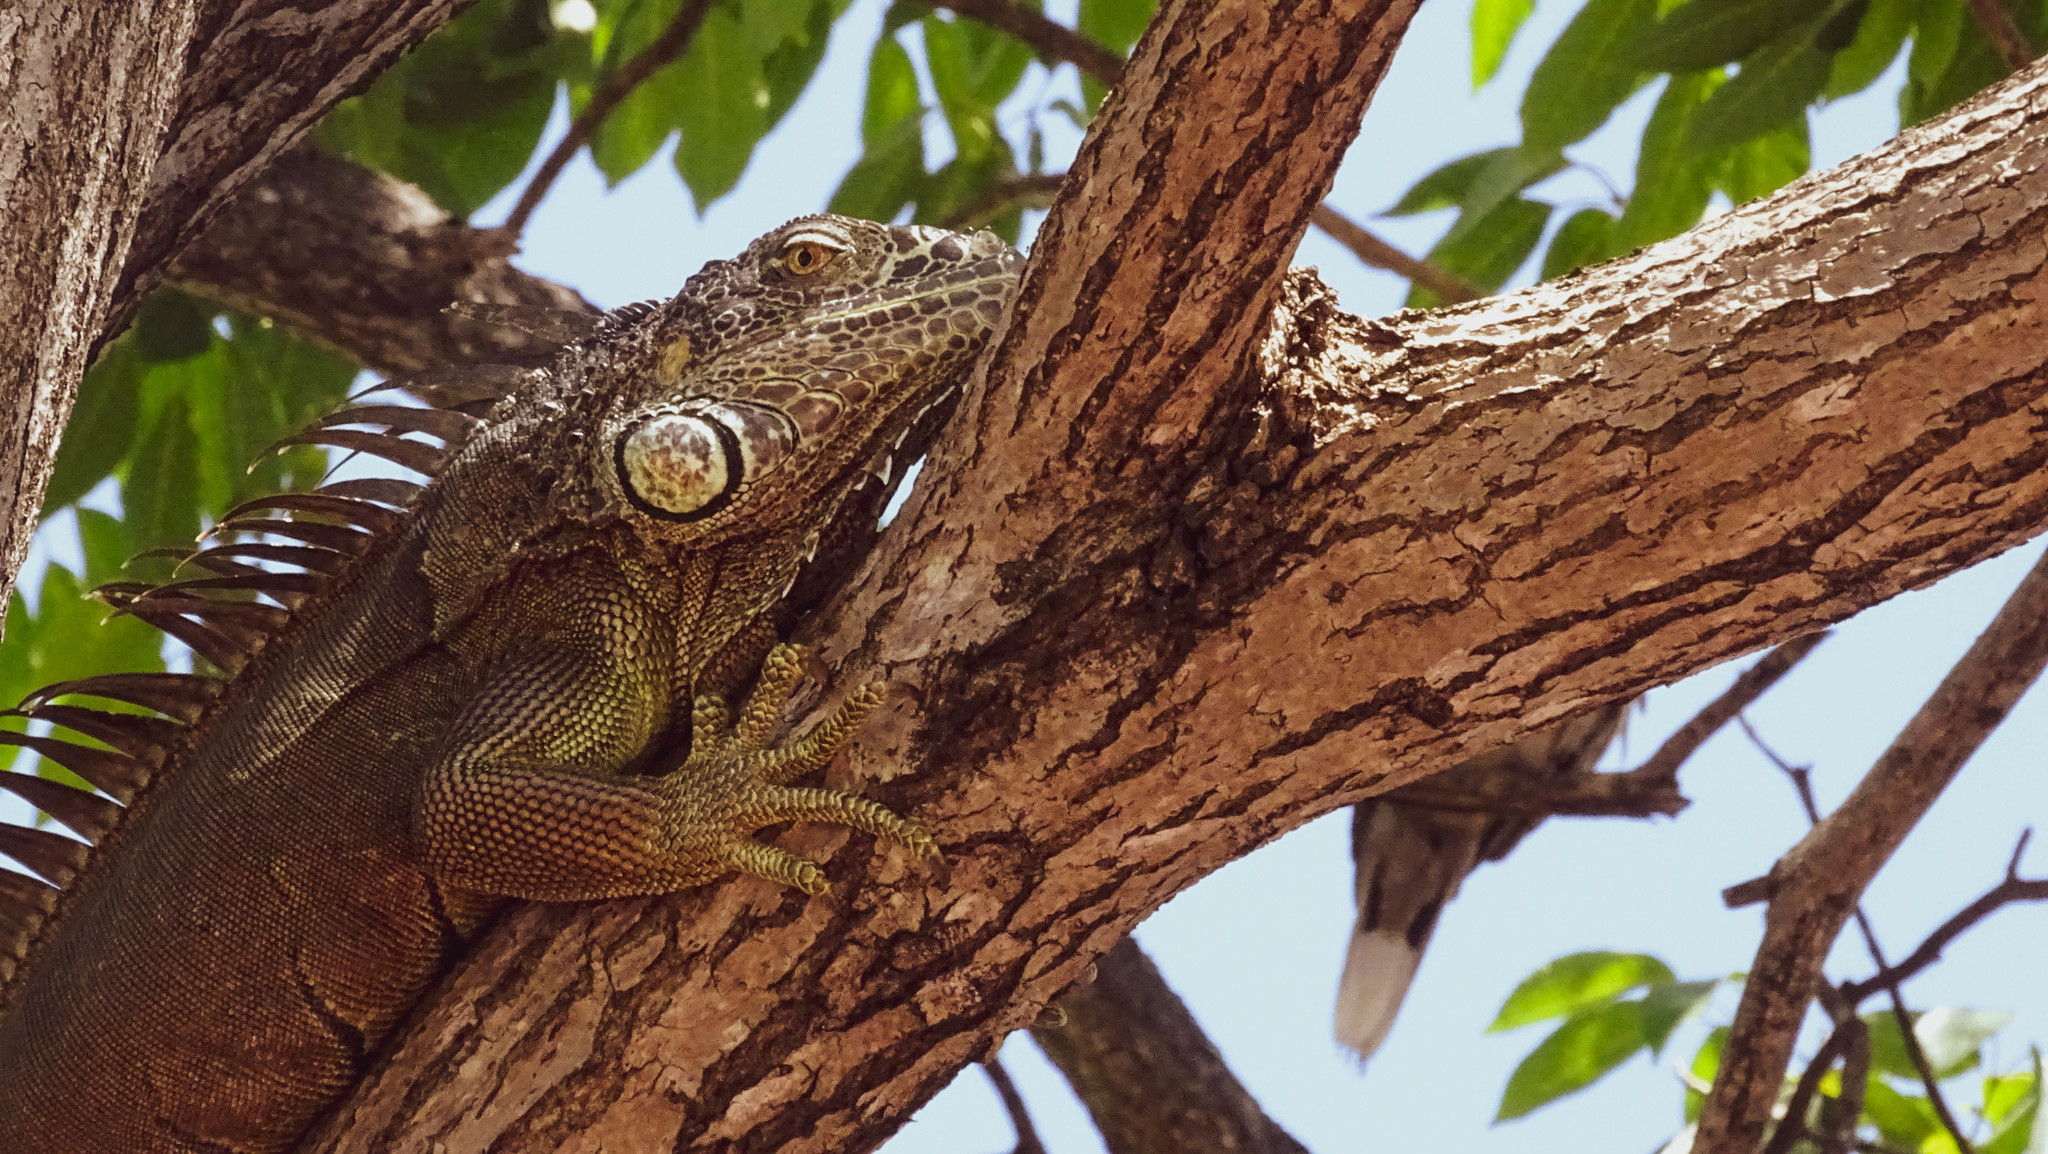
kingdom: Animalia
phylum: Chordata
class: Squamata
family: Iguanidae
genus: Iguana
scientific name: Iguana iguana
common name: Green iguana
